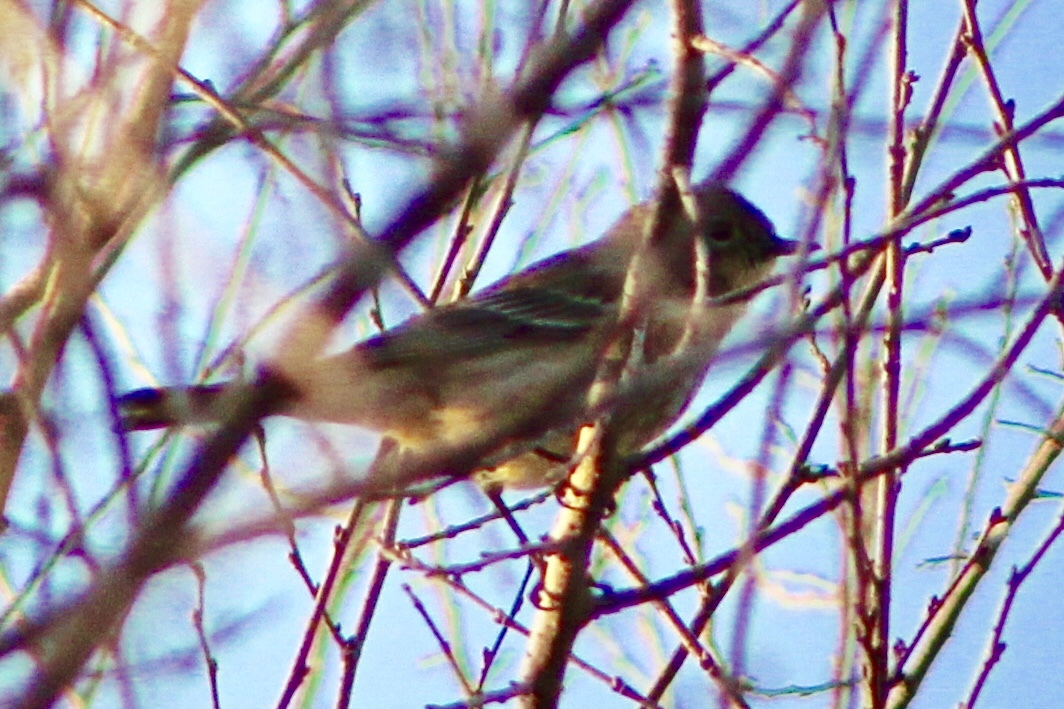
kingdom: Animalia
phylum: Chordata
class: Aves
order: Passeriformes
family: Parulidae
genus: Setophaga
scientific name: Setophaga coronata
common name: Myrtle warbler
